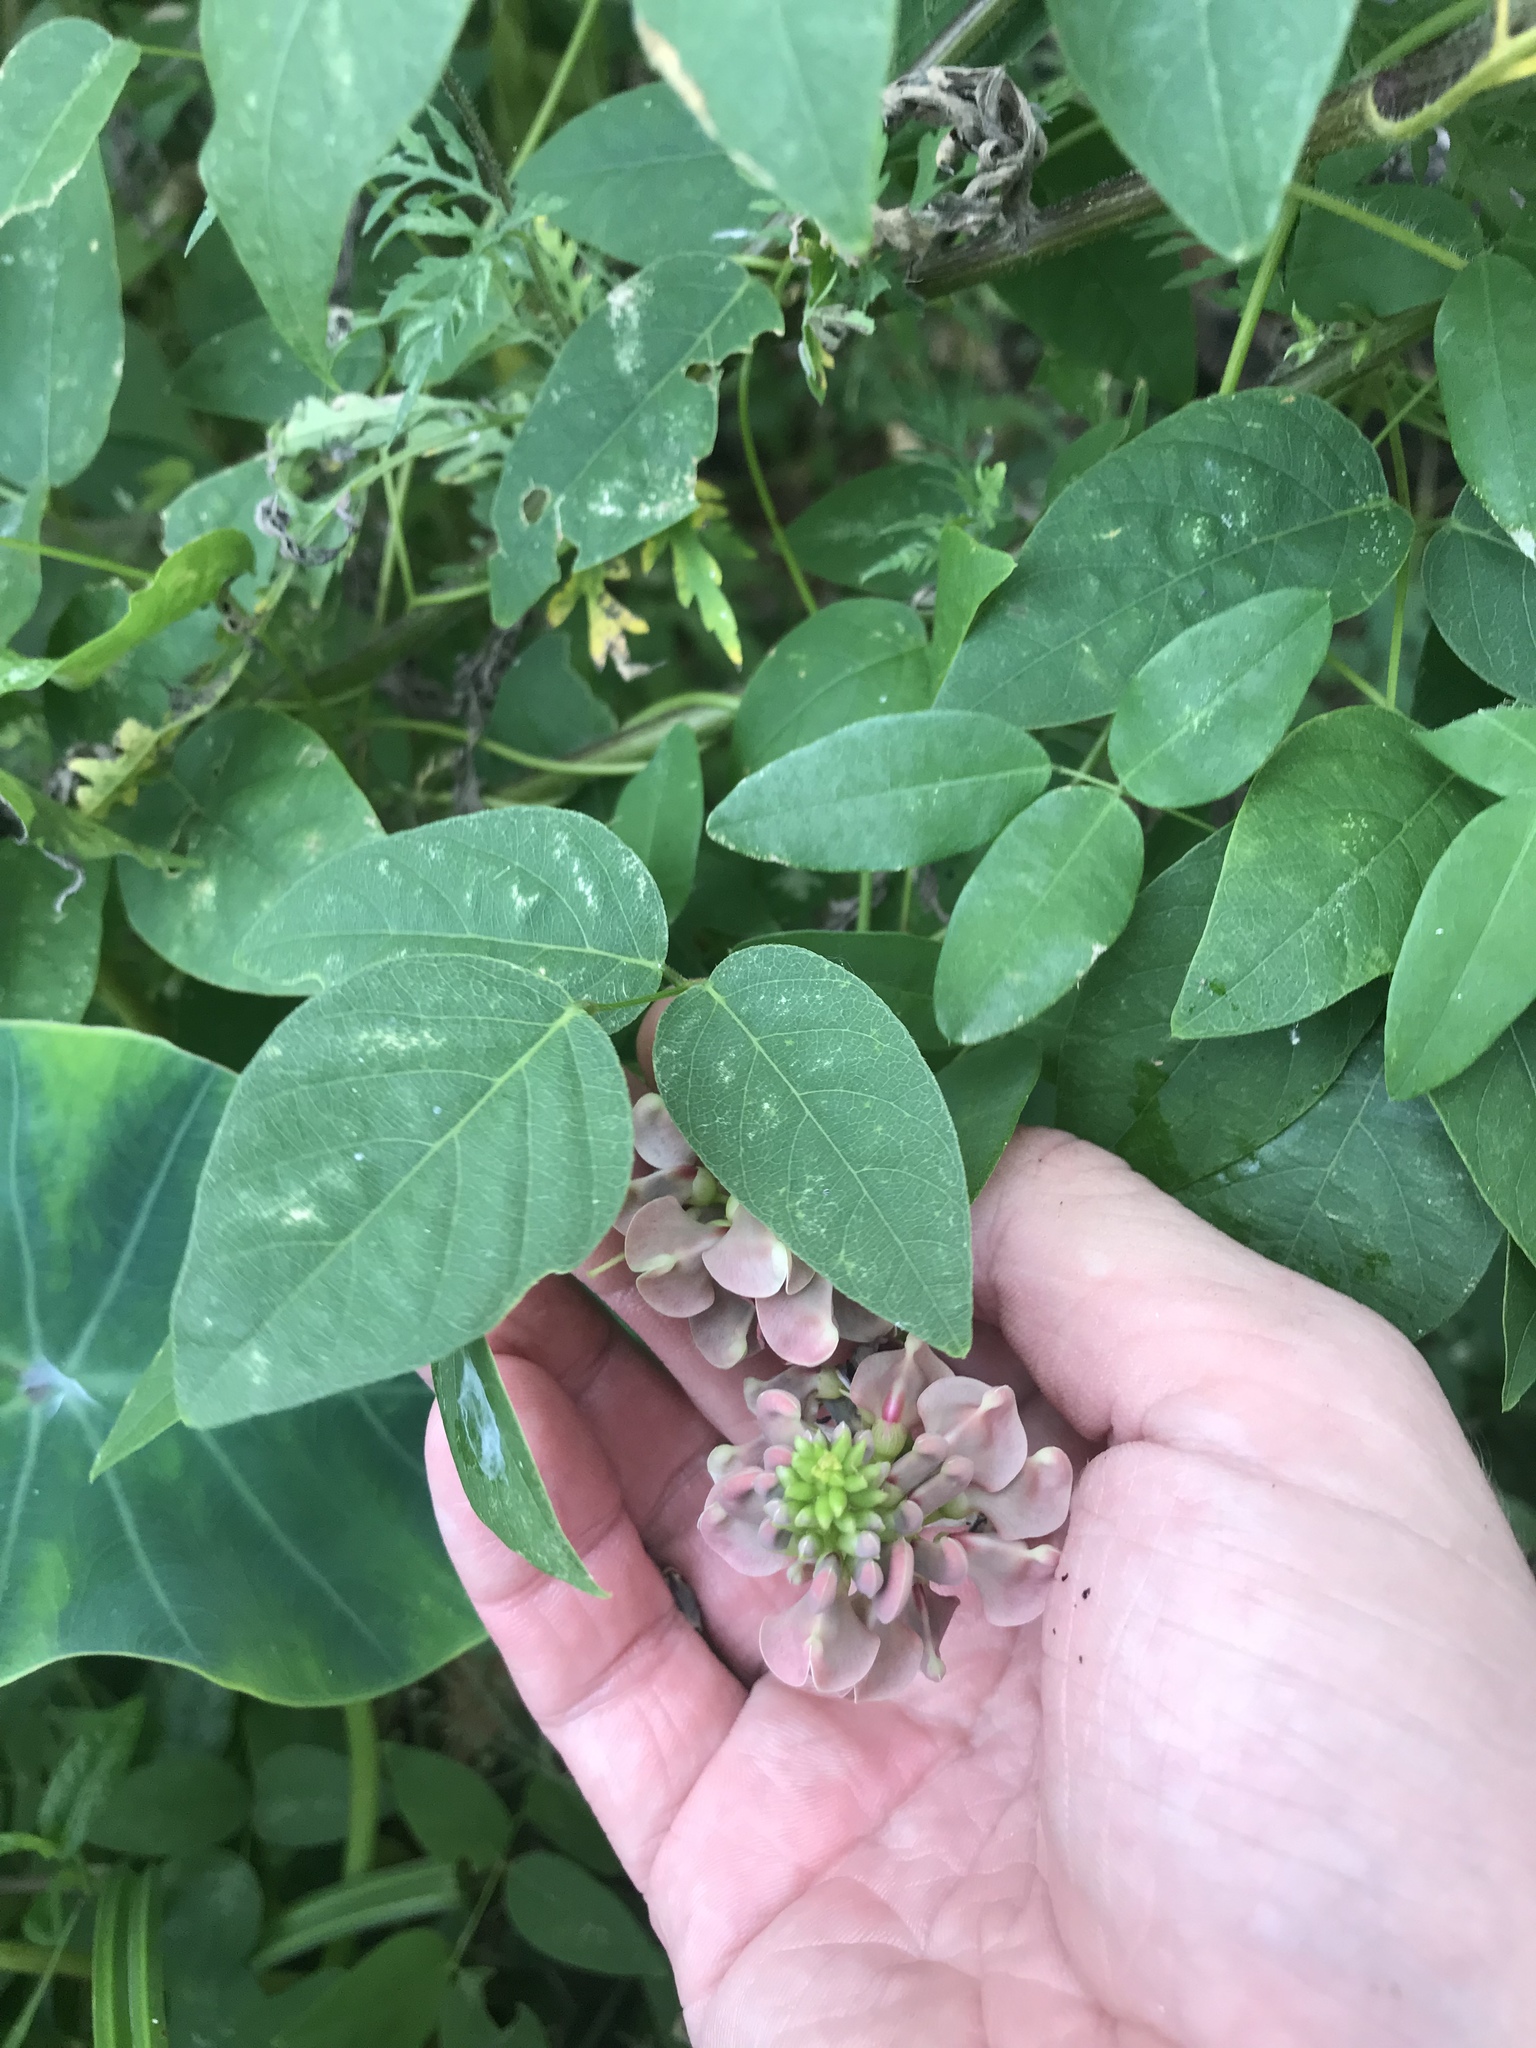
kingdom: Plantae
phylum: Tracheophyta
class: Magnoliopsida
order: Fabales
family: Fabaceae
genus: Apios
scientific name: Apios americana
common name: American potato-bean
